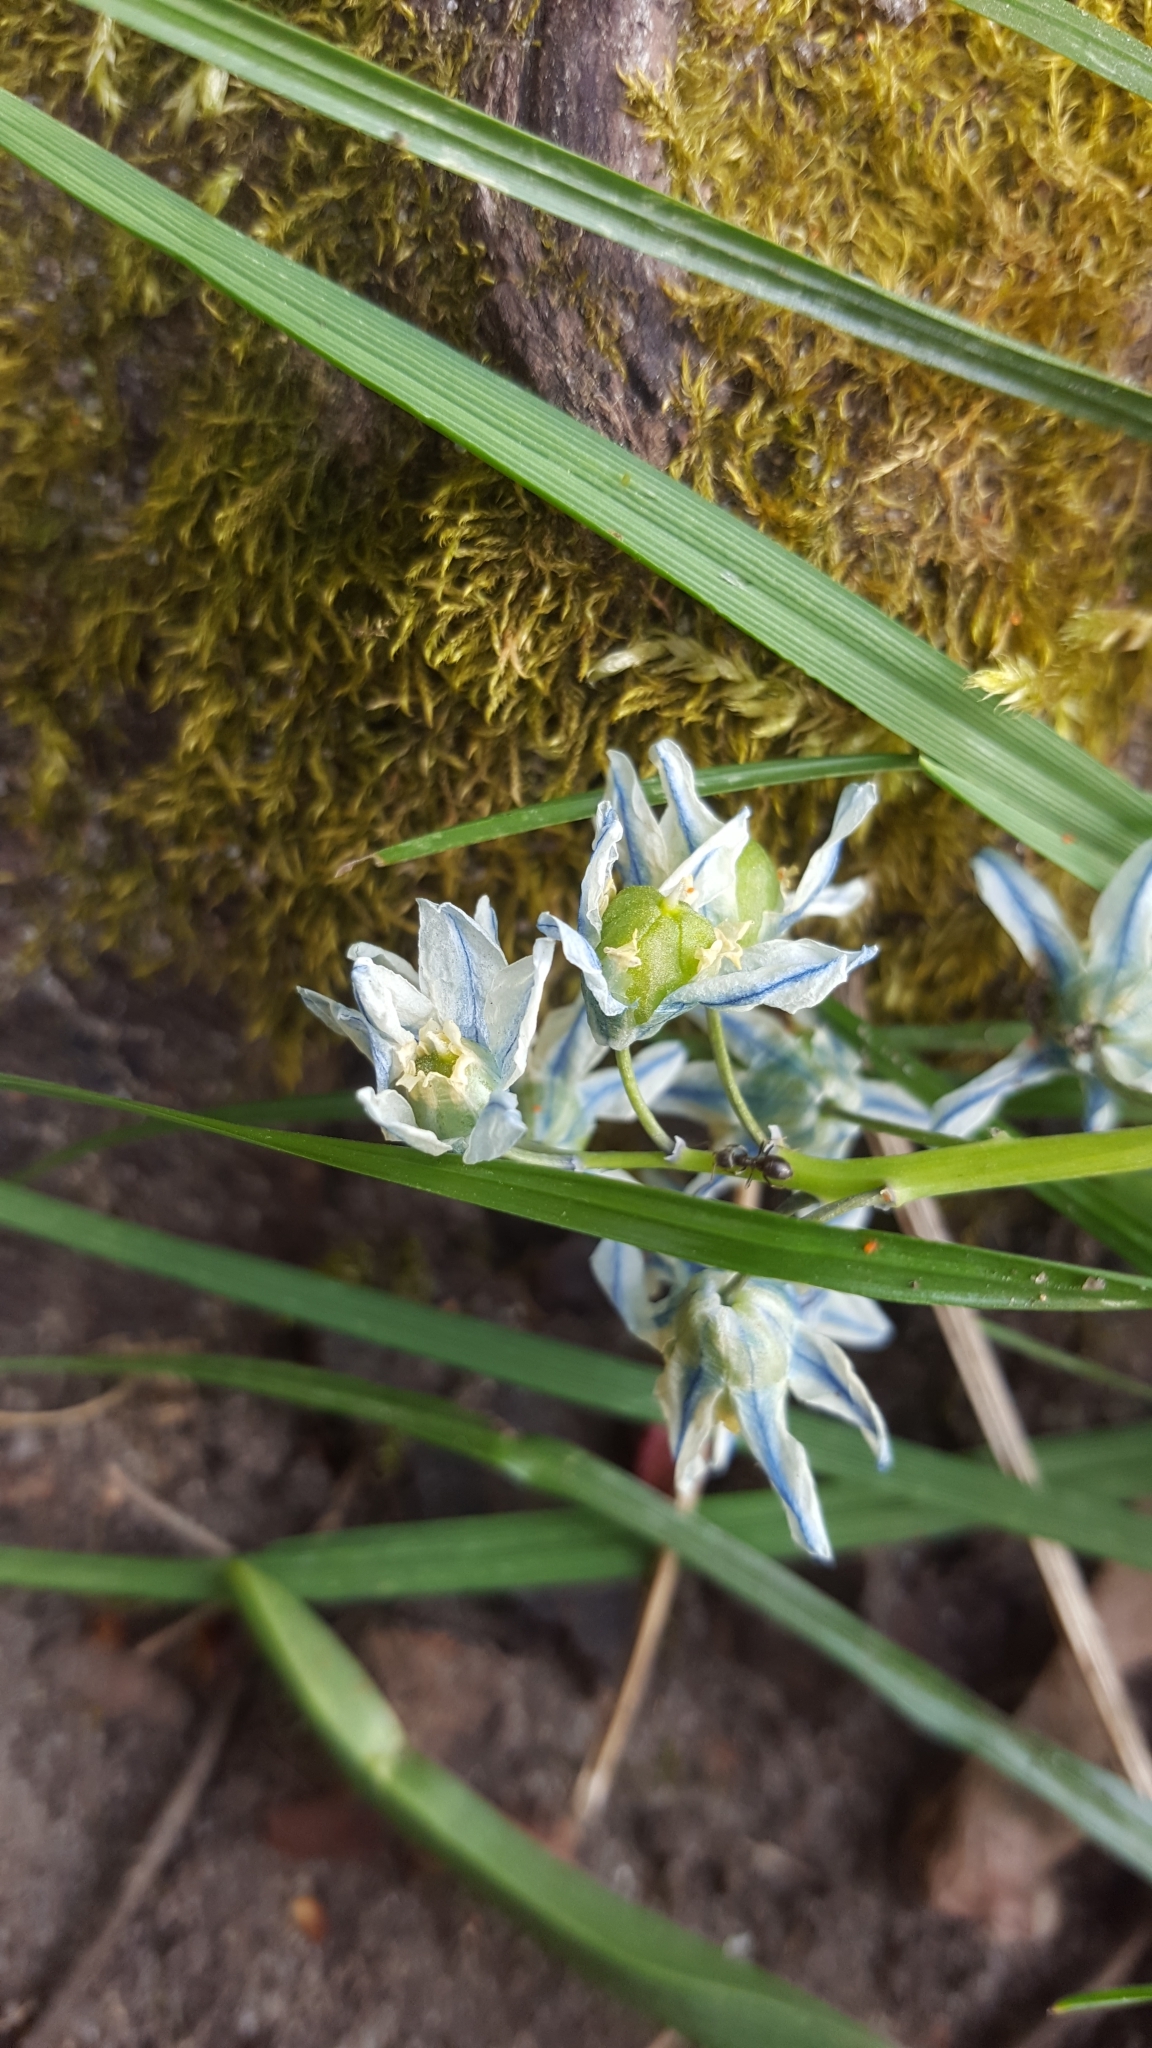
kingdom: Plantae
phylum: Tracheophyta
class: Liliopsida
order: Asparagales
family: Asparagaceae
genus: Puschkinia
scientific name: Puschkinia scilloides
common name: Striped squill
